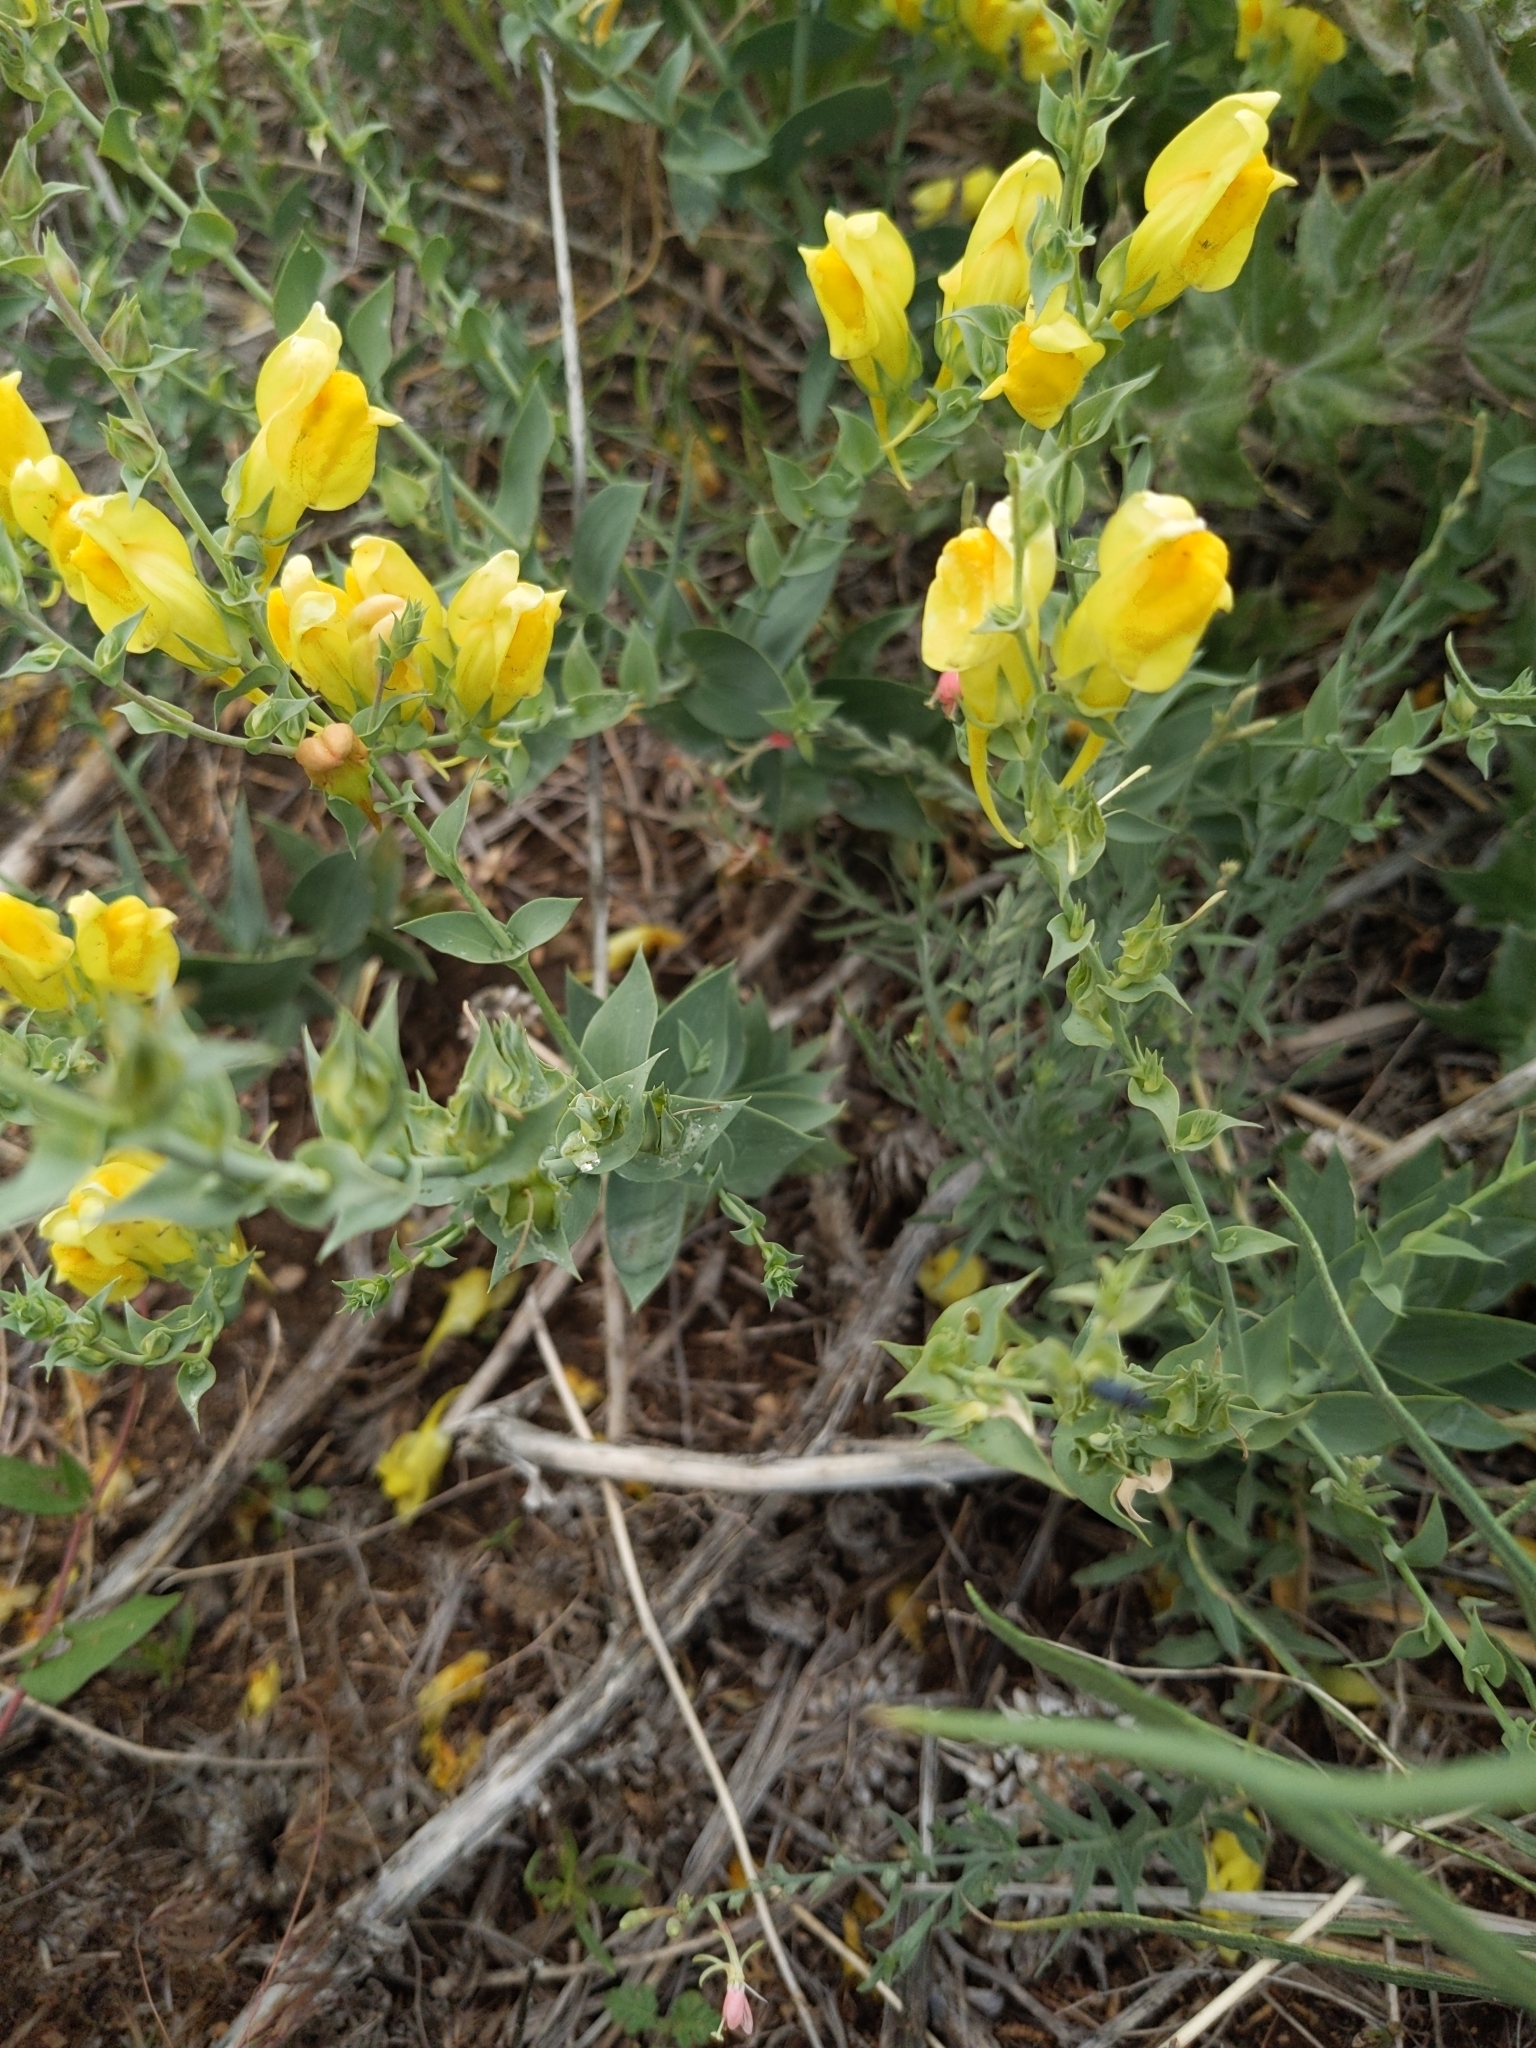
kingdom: Plantae
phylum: Tracheophyta
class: Magnoliopsida
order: Lamiales
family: Plantaginaceae
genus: Linaria
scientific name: Linaria dalmatica
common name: Dalmatian toadflax
